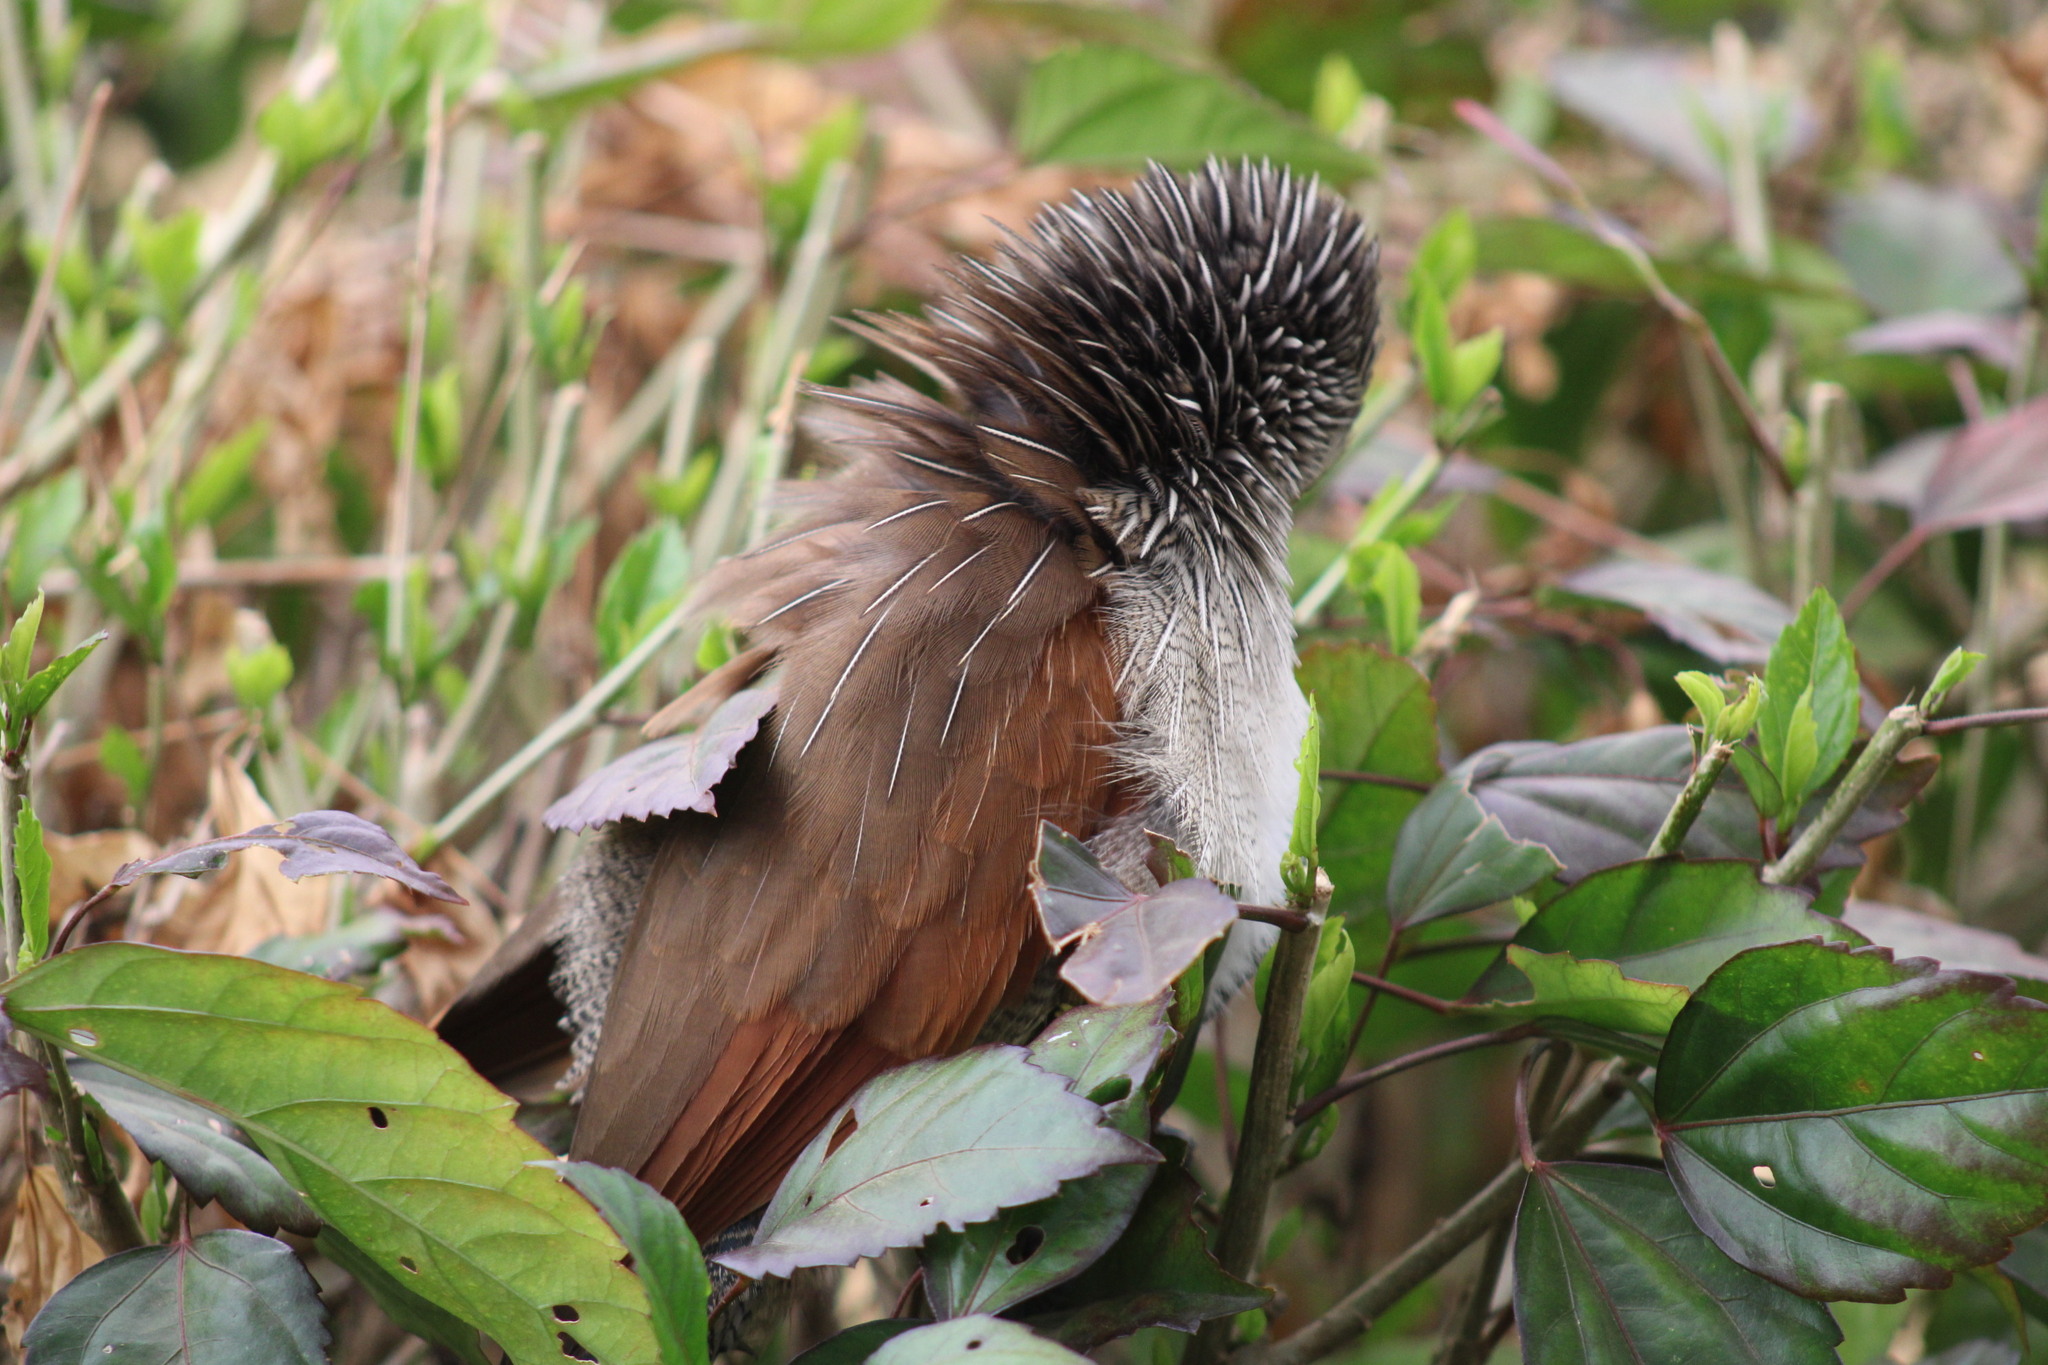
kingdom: Animalia
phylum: Chordata
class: Aves
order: Cuculiformes
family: Cuculidae
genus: Centropus
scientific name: Centropus superciliosus
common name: White-browed coucal
